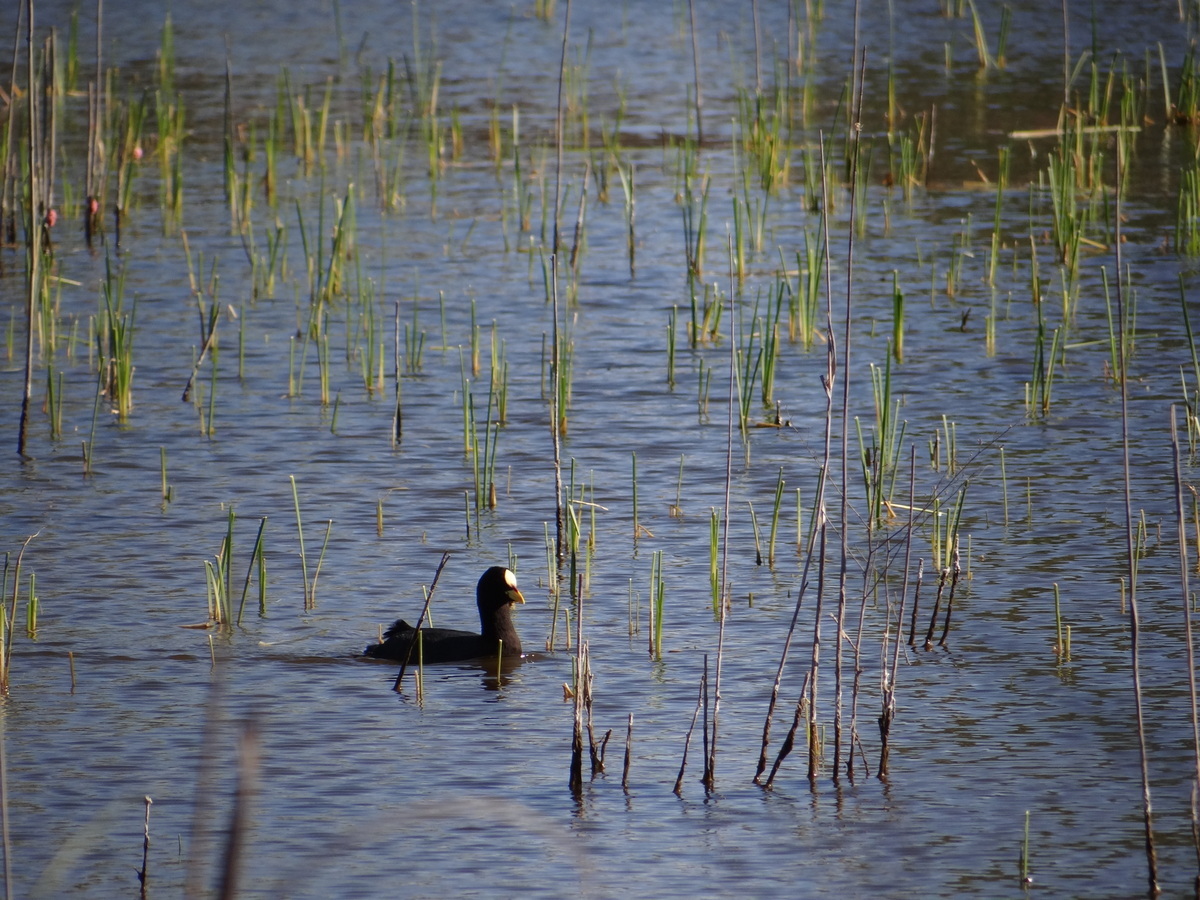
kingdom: Animalia
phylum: Chordata
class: Aves
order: Gruiformes
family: Rallidae
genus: Fulica
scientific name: Fulica armillata
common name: Red-gartered coot
